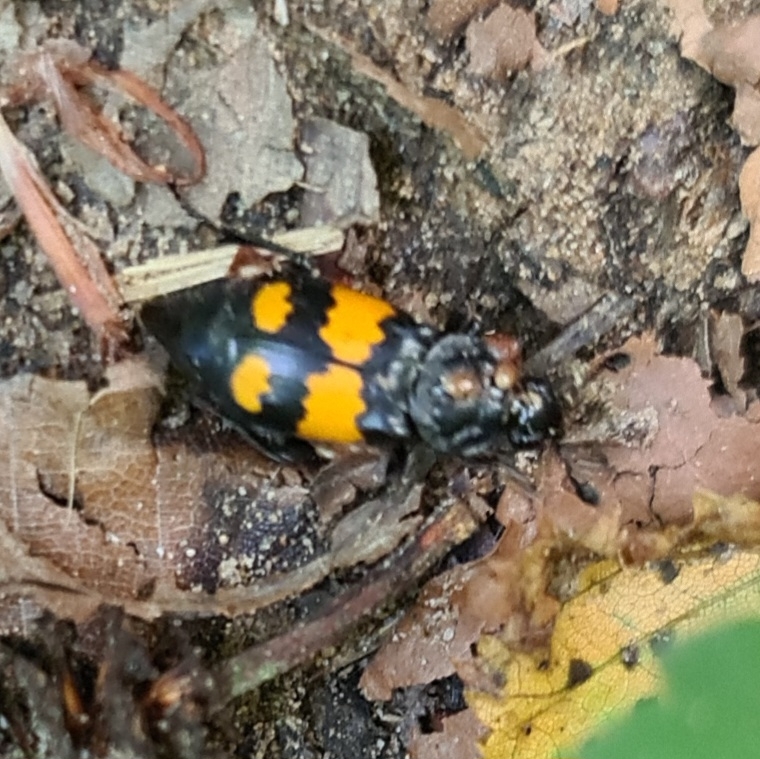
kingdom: Animalia
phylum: Arthropoda
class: Insecta
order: Coleoptera
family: Staphylinidae
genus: Nicrophorus
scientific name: Nicrophorus vespilloides
